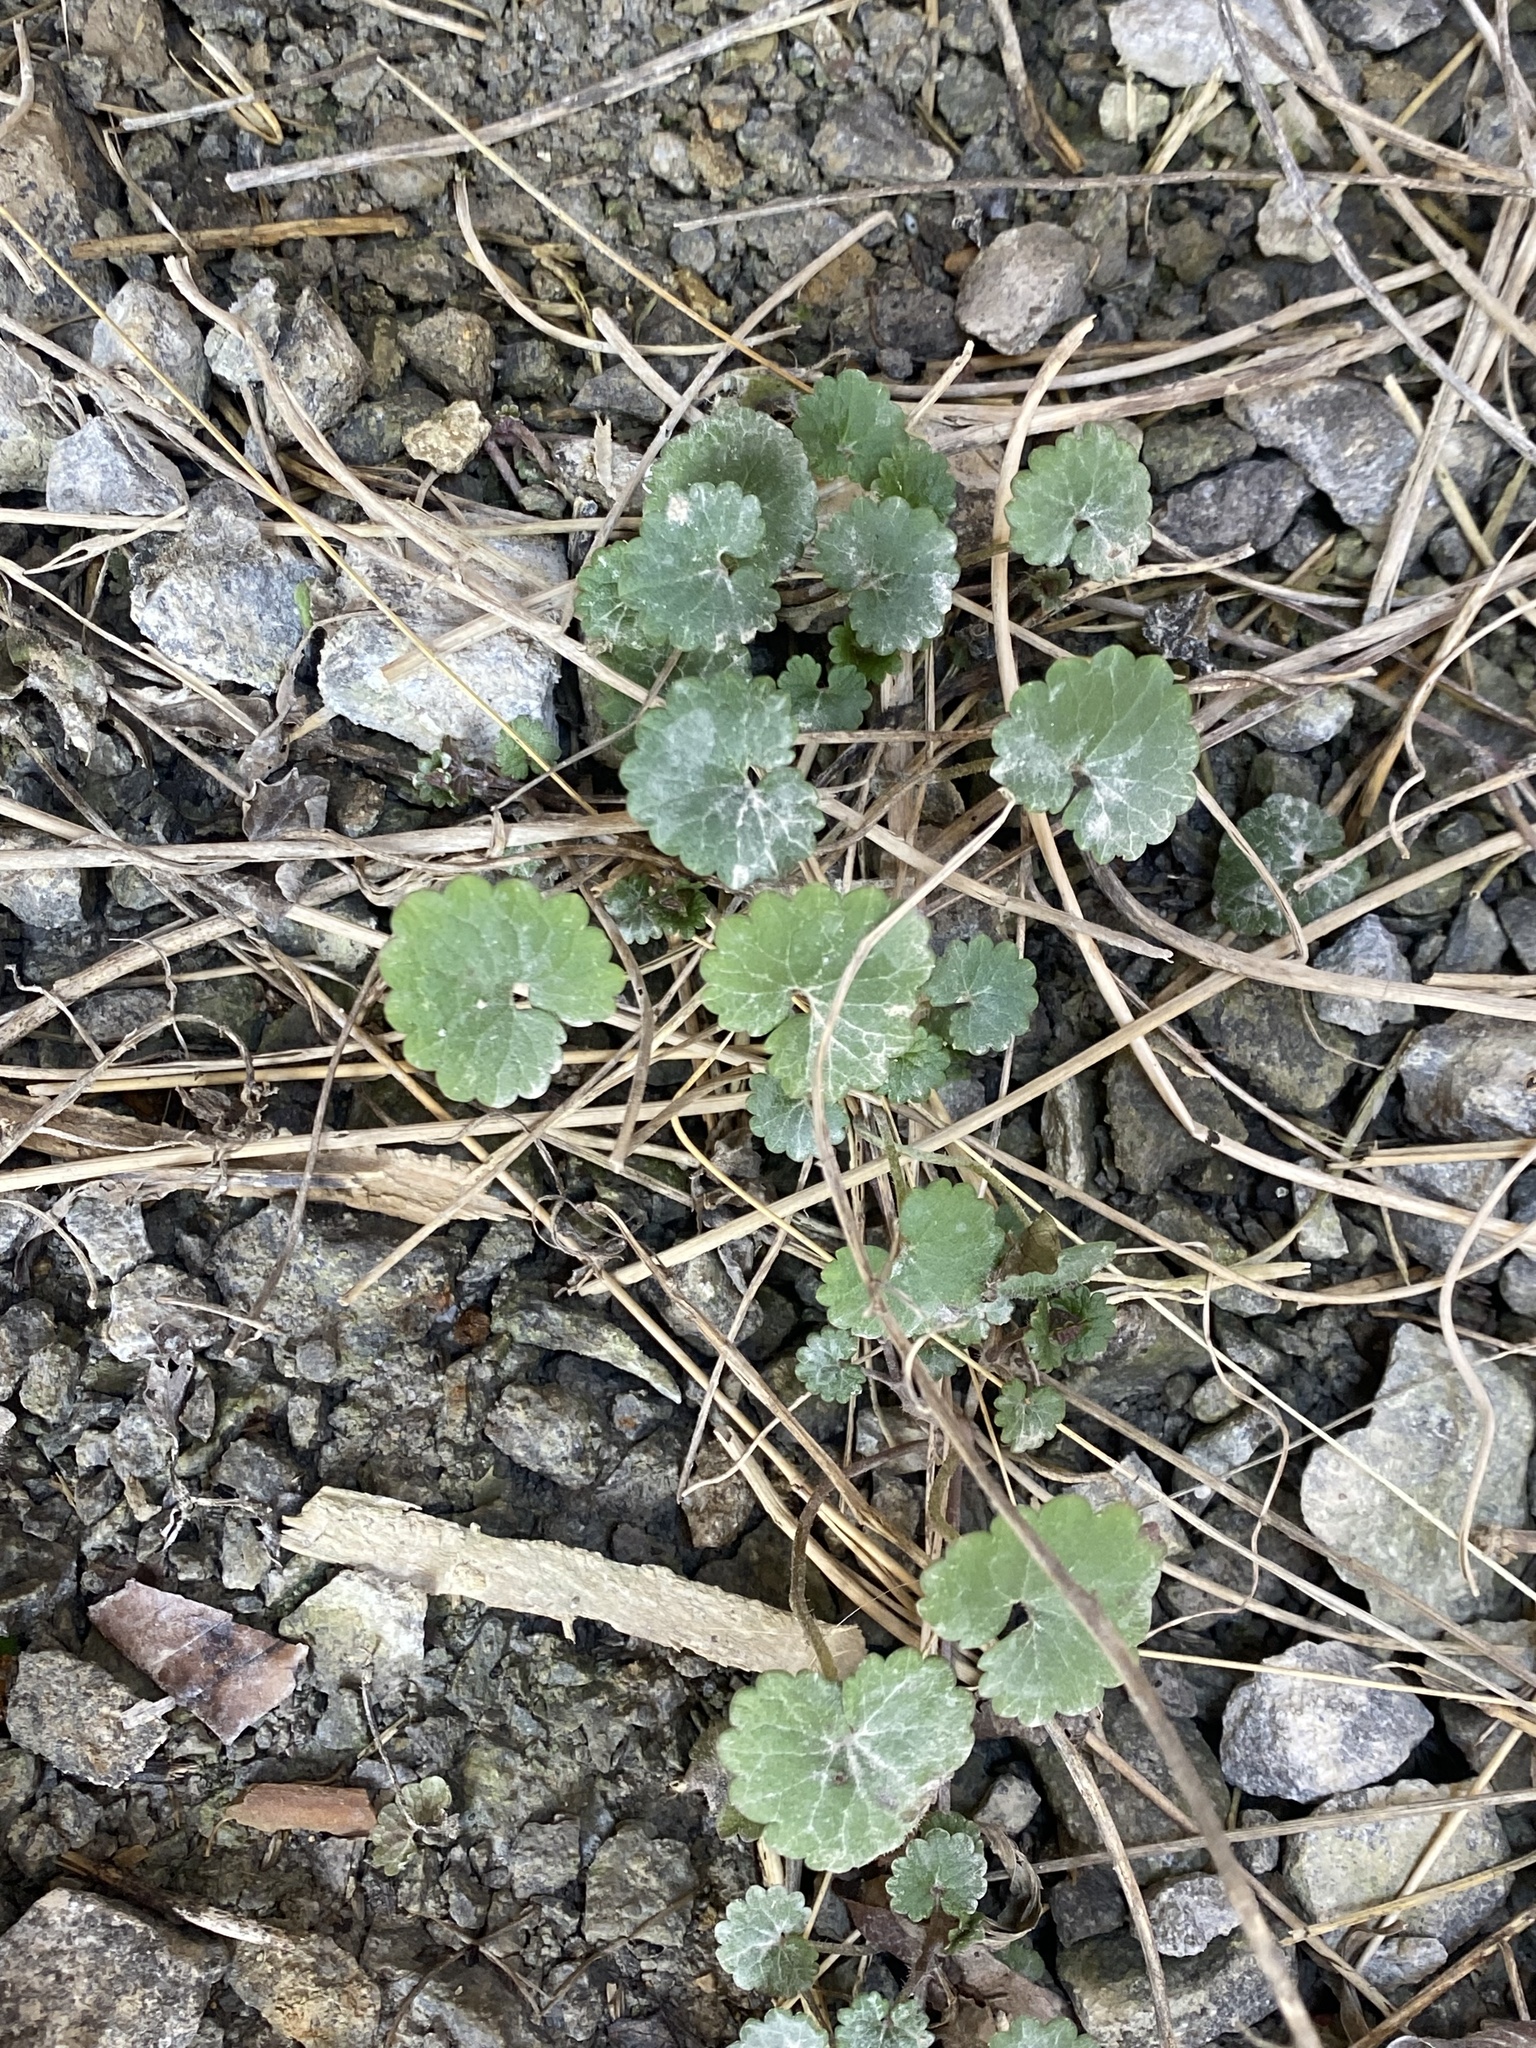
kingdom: Plantae
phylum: Tracheophyta
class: Magnoliopsida
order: Lamiales
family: Lamiaceae
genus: Glechoma
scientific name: Glechoma hederacea
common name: Ground ivy
